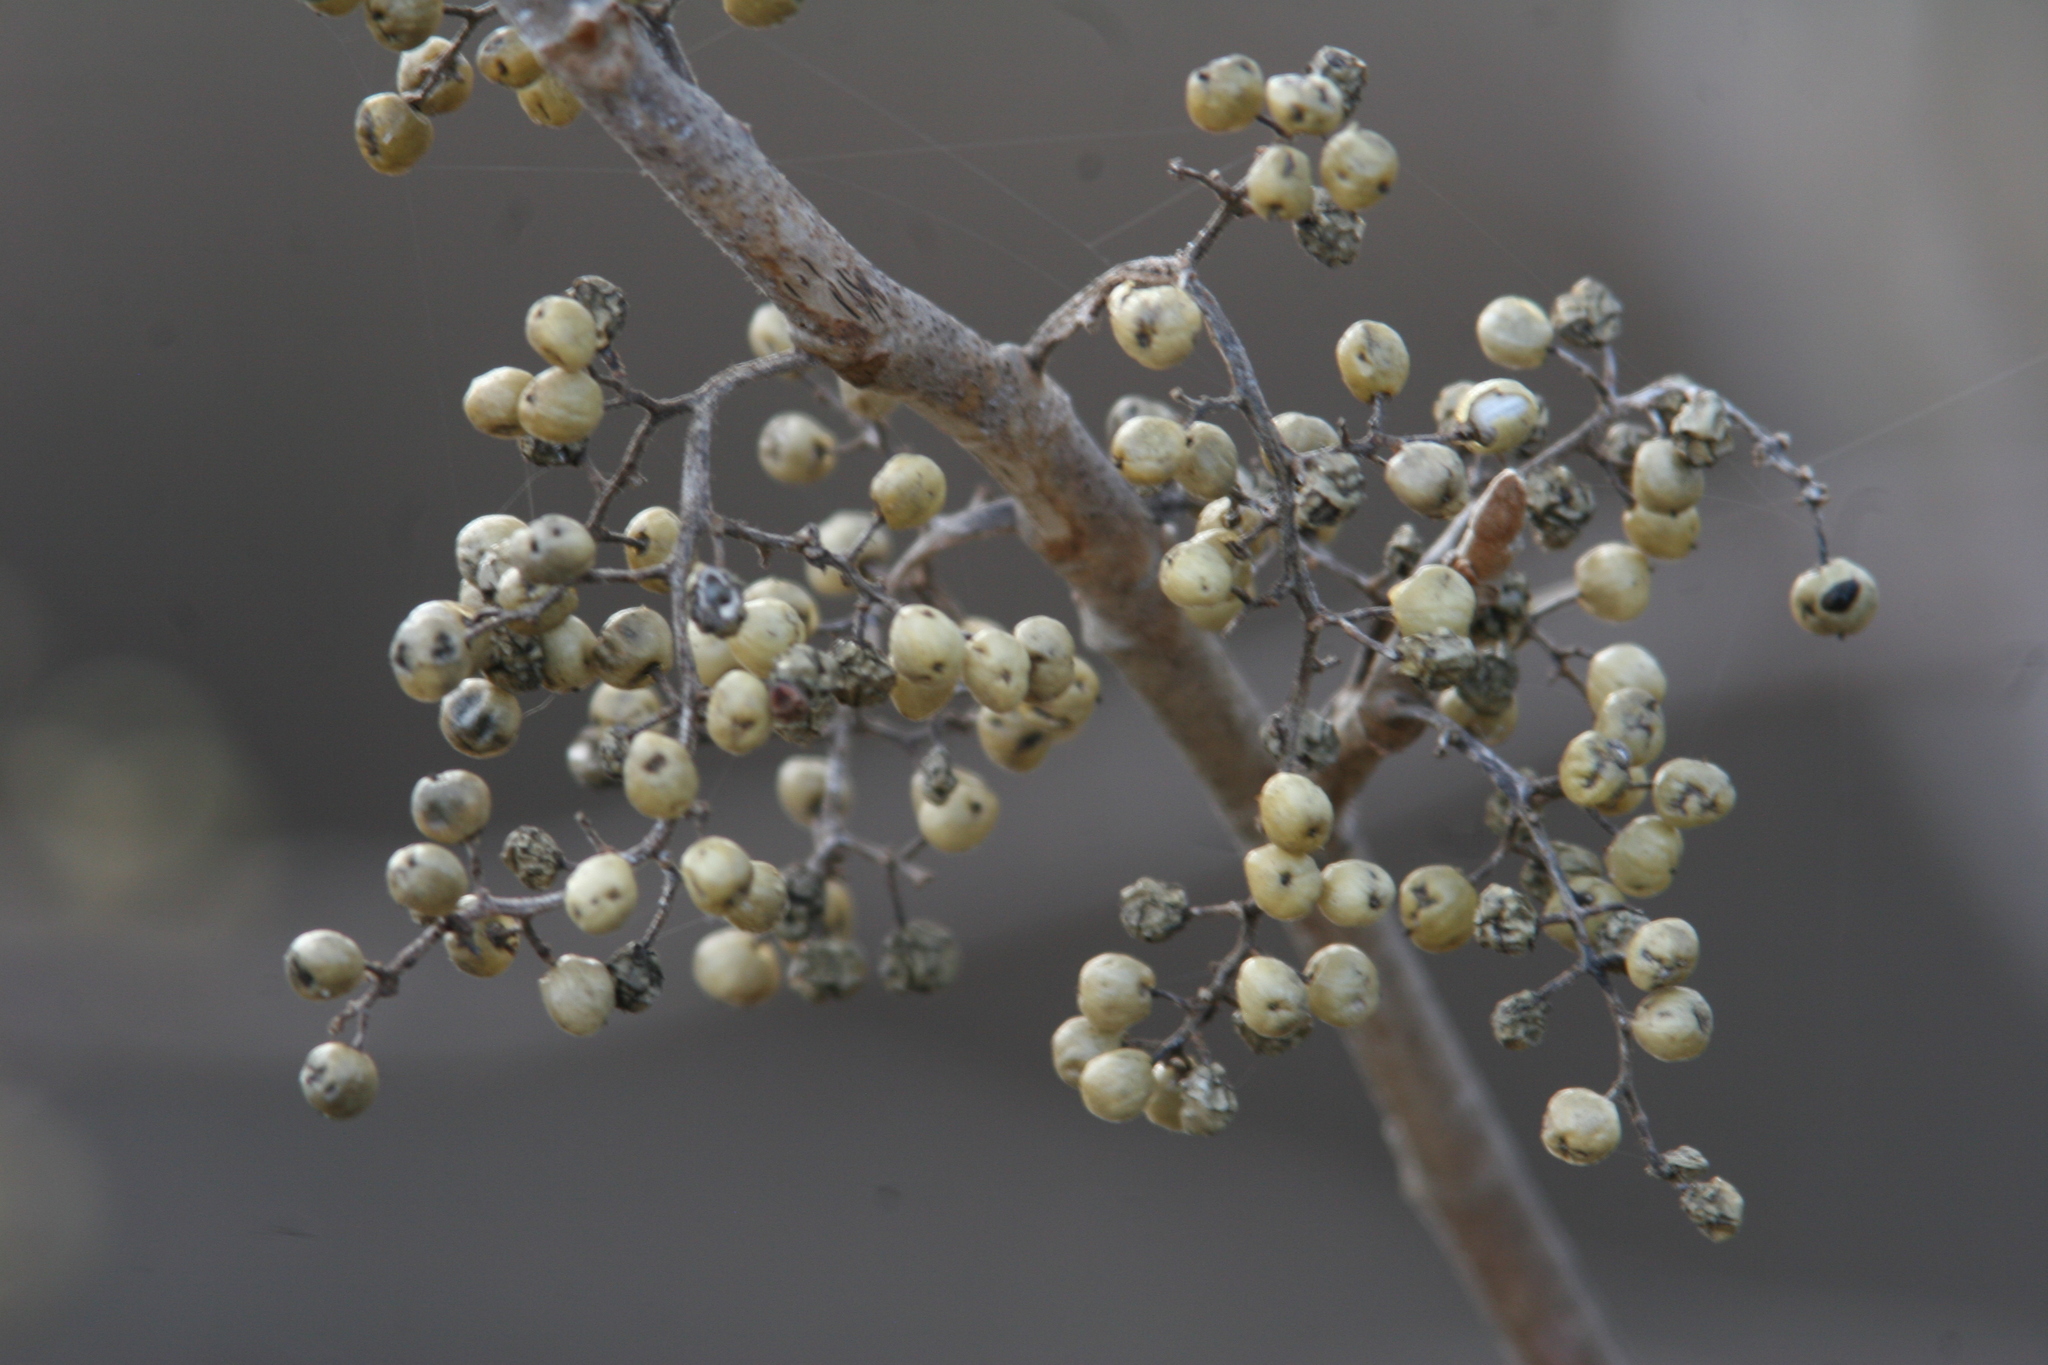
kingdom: Plantae
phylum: Tracheophyta
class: Magnoliopsida
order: Sapindales
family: Anacardiaceae
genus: Toxicodendron
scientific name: Toxicodendron radicans
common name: Poison ivy
